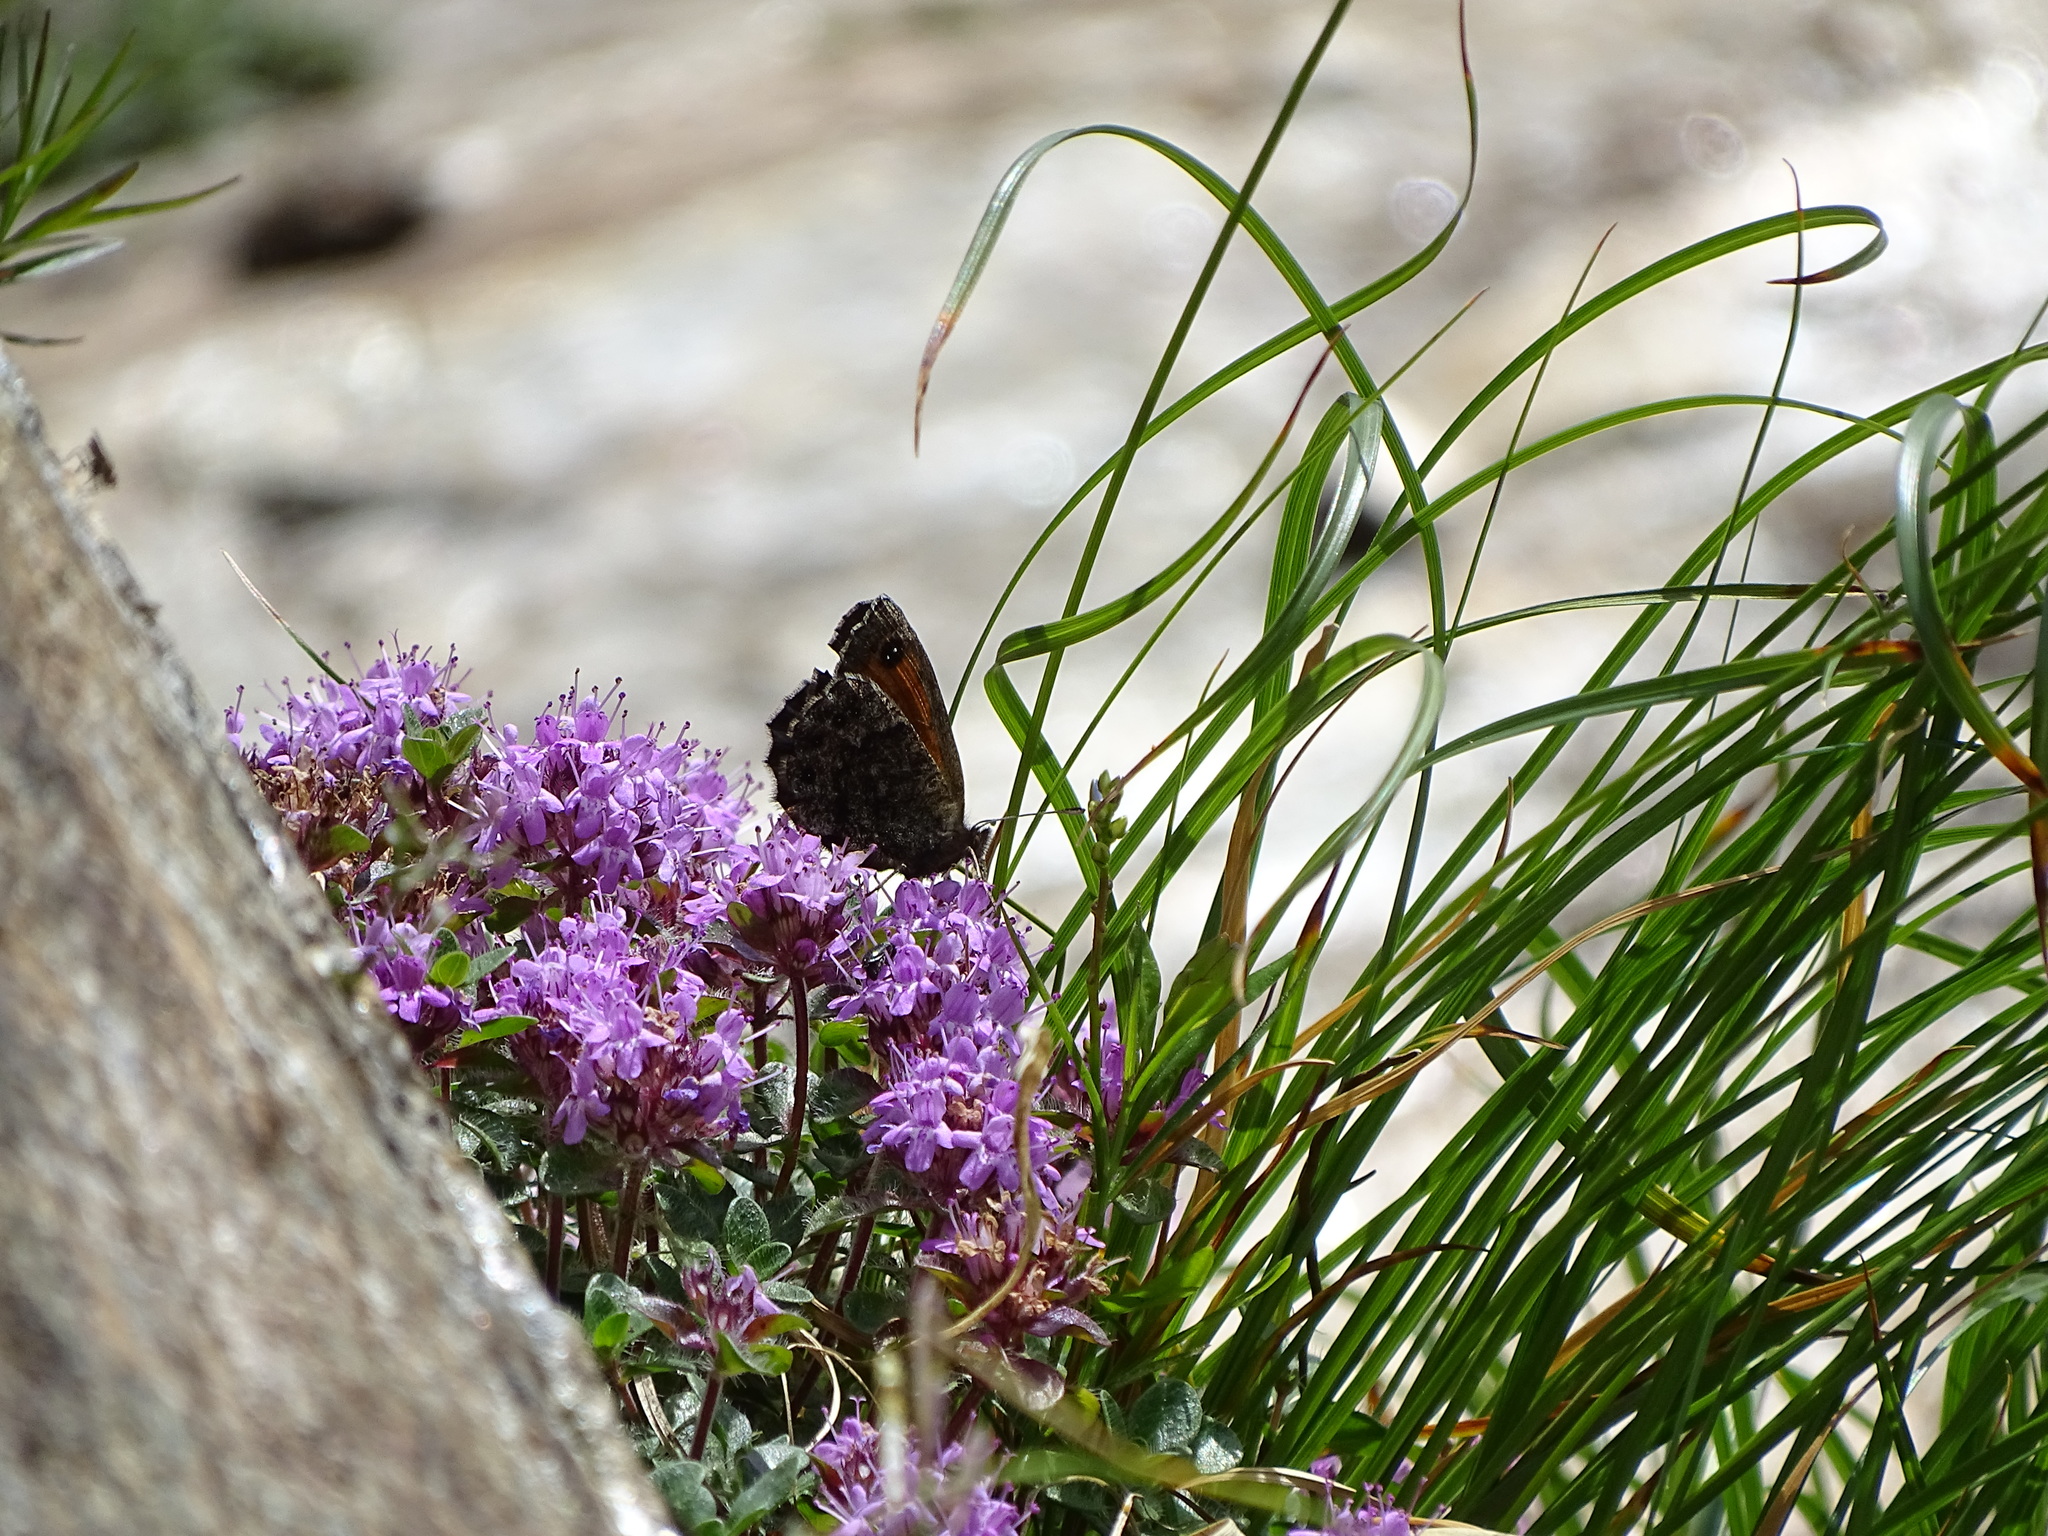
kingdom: Animalia
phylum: Arthropoda
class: Insecta
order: Lepidoptera
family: Nymphalidae
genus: Erebia
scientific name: Erebia gorge
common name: Silky ringlet
